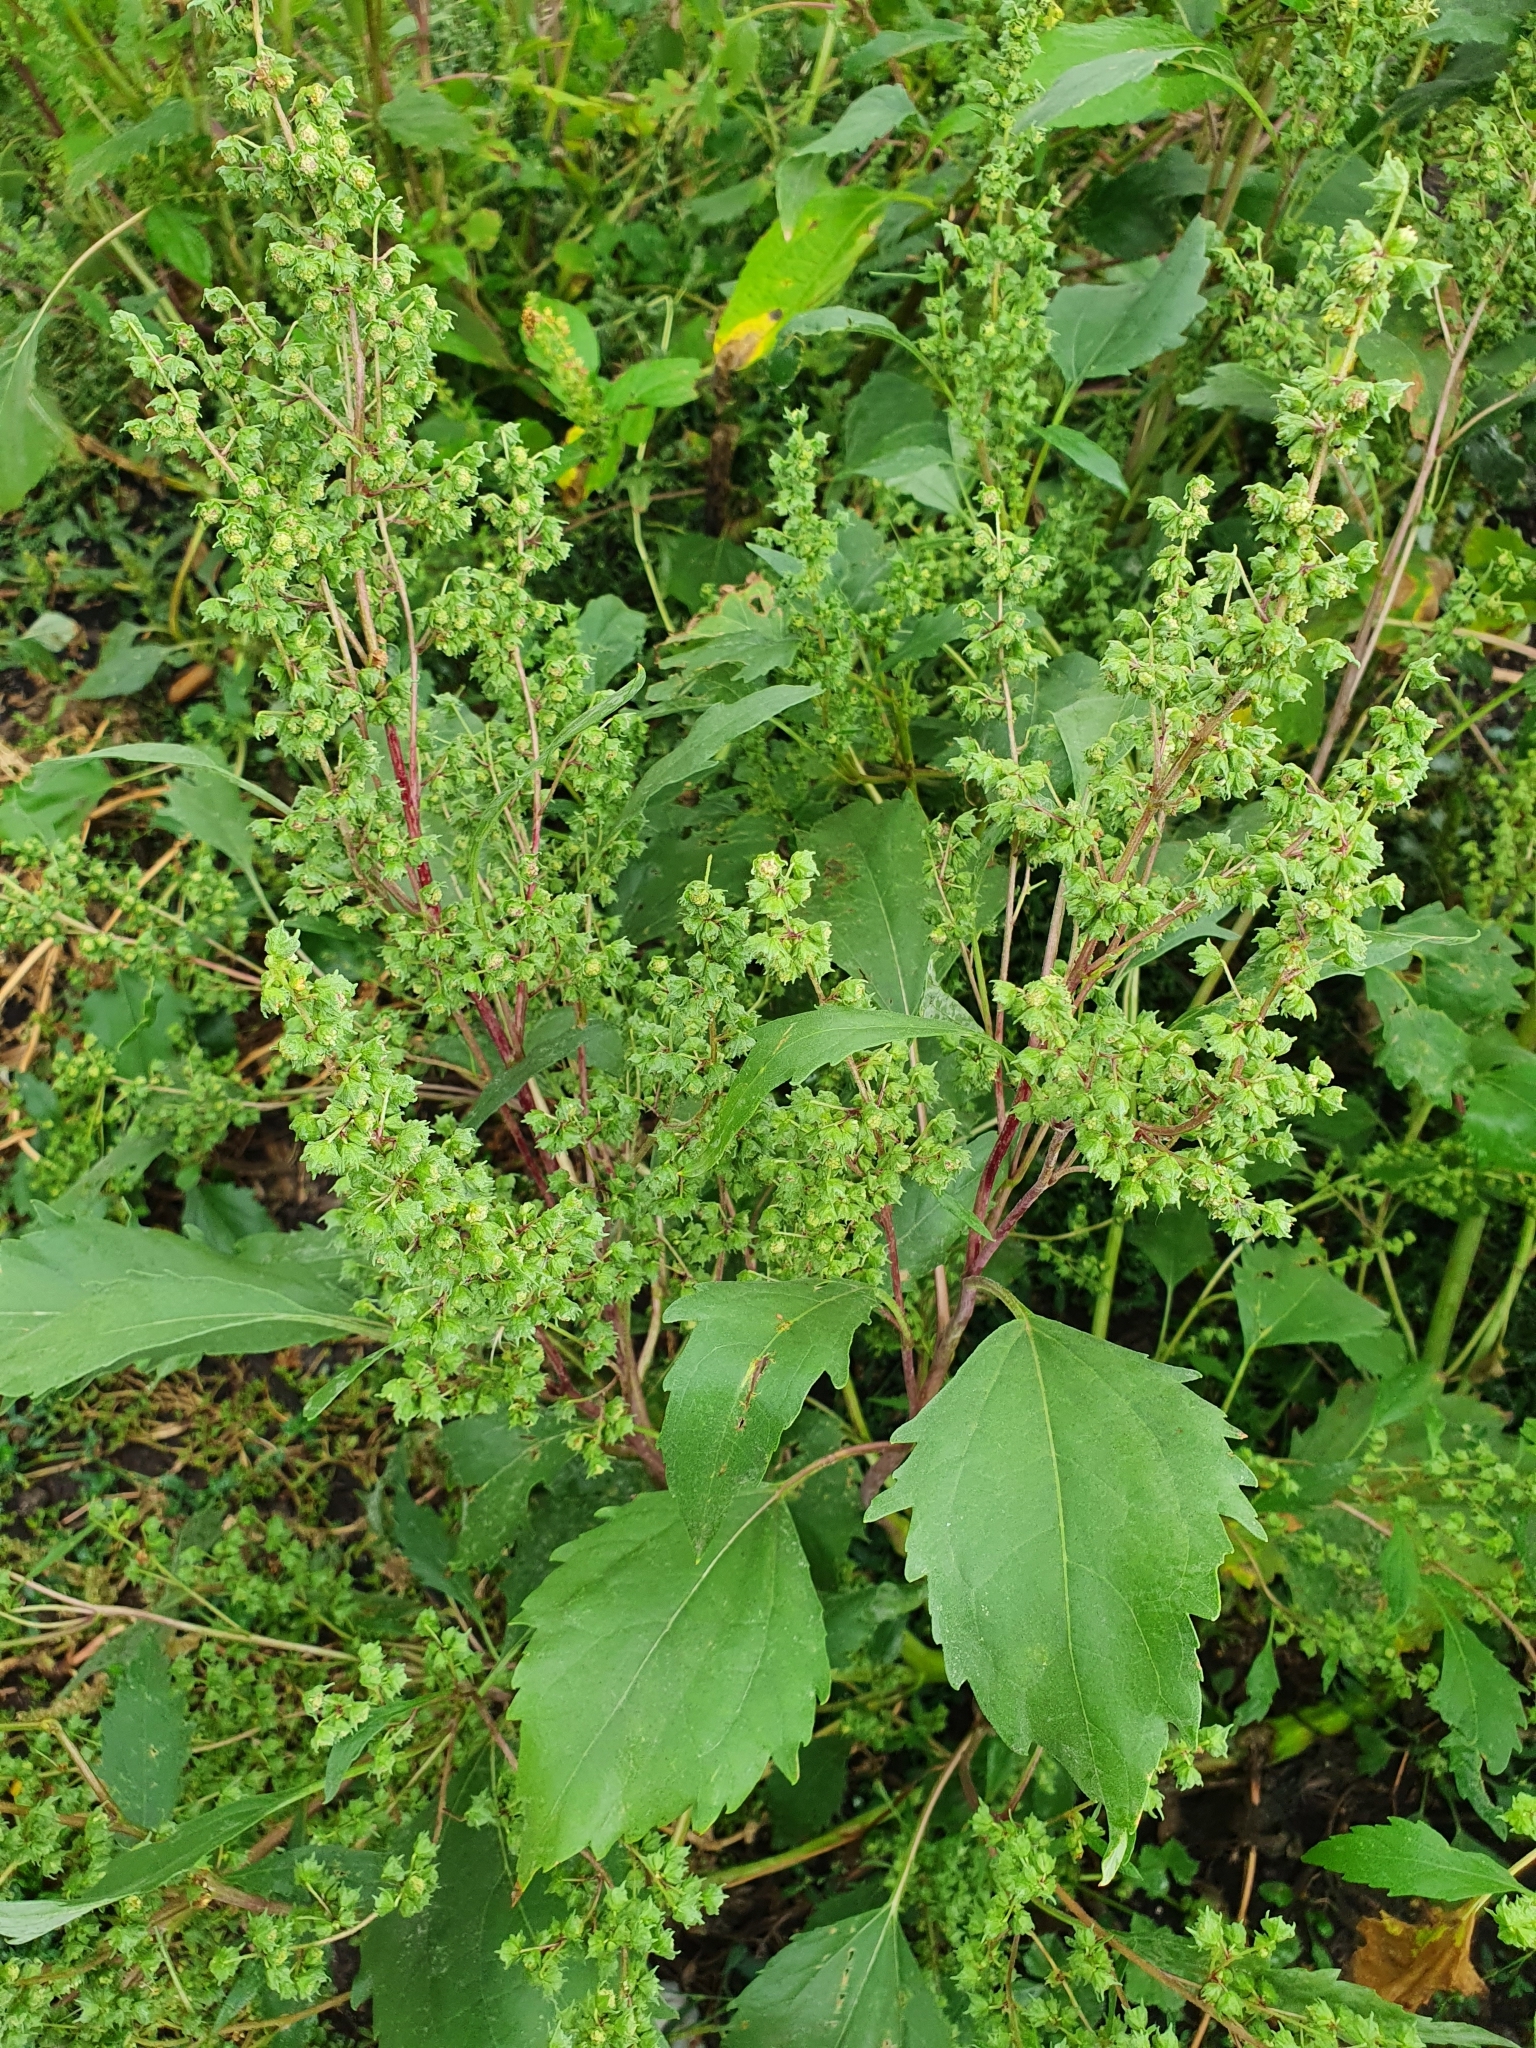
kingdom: Plantae
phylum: Tracheophyta
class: Magnoliopsida
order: Asterales
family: Asteraceae
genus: Cyclachaena
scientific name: Cyclachaena xanthiifolia
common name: Giant sumpweed
